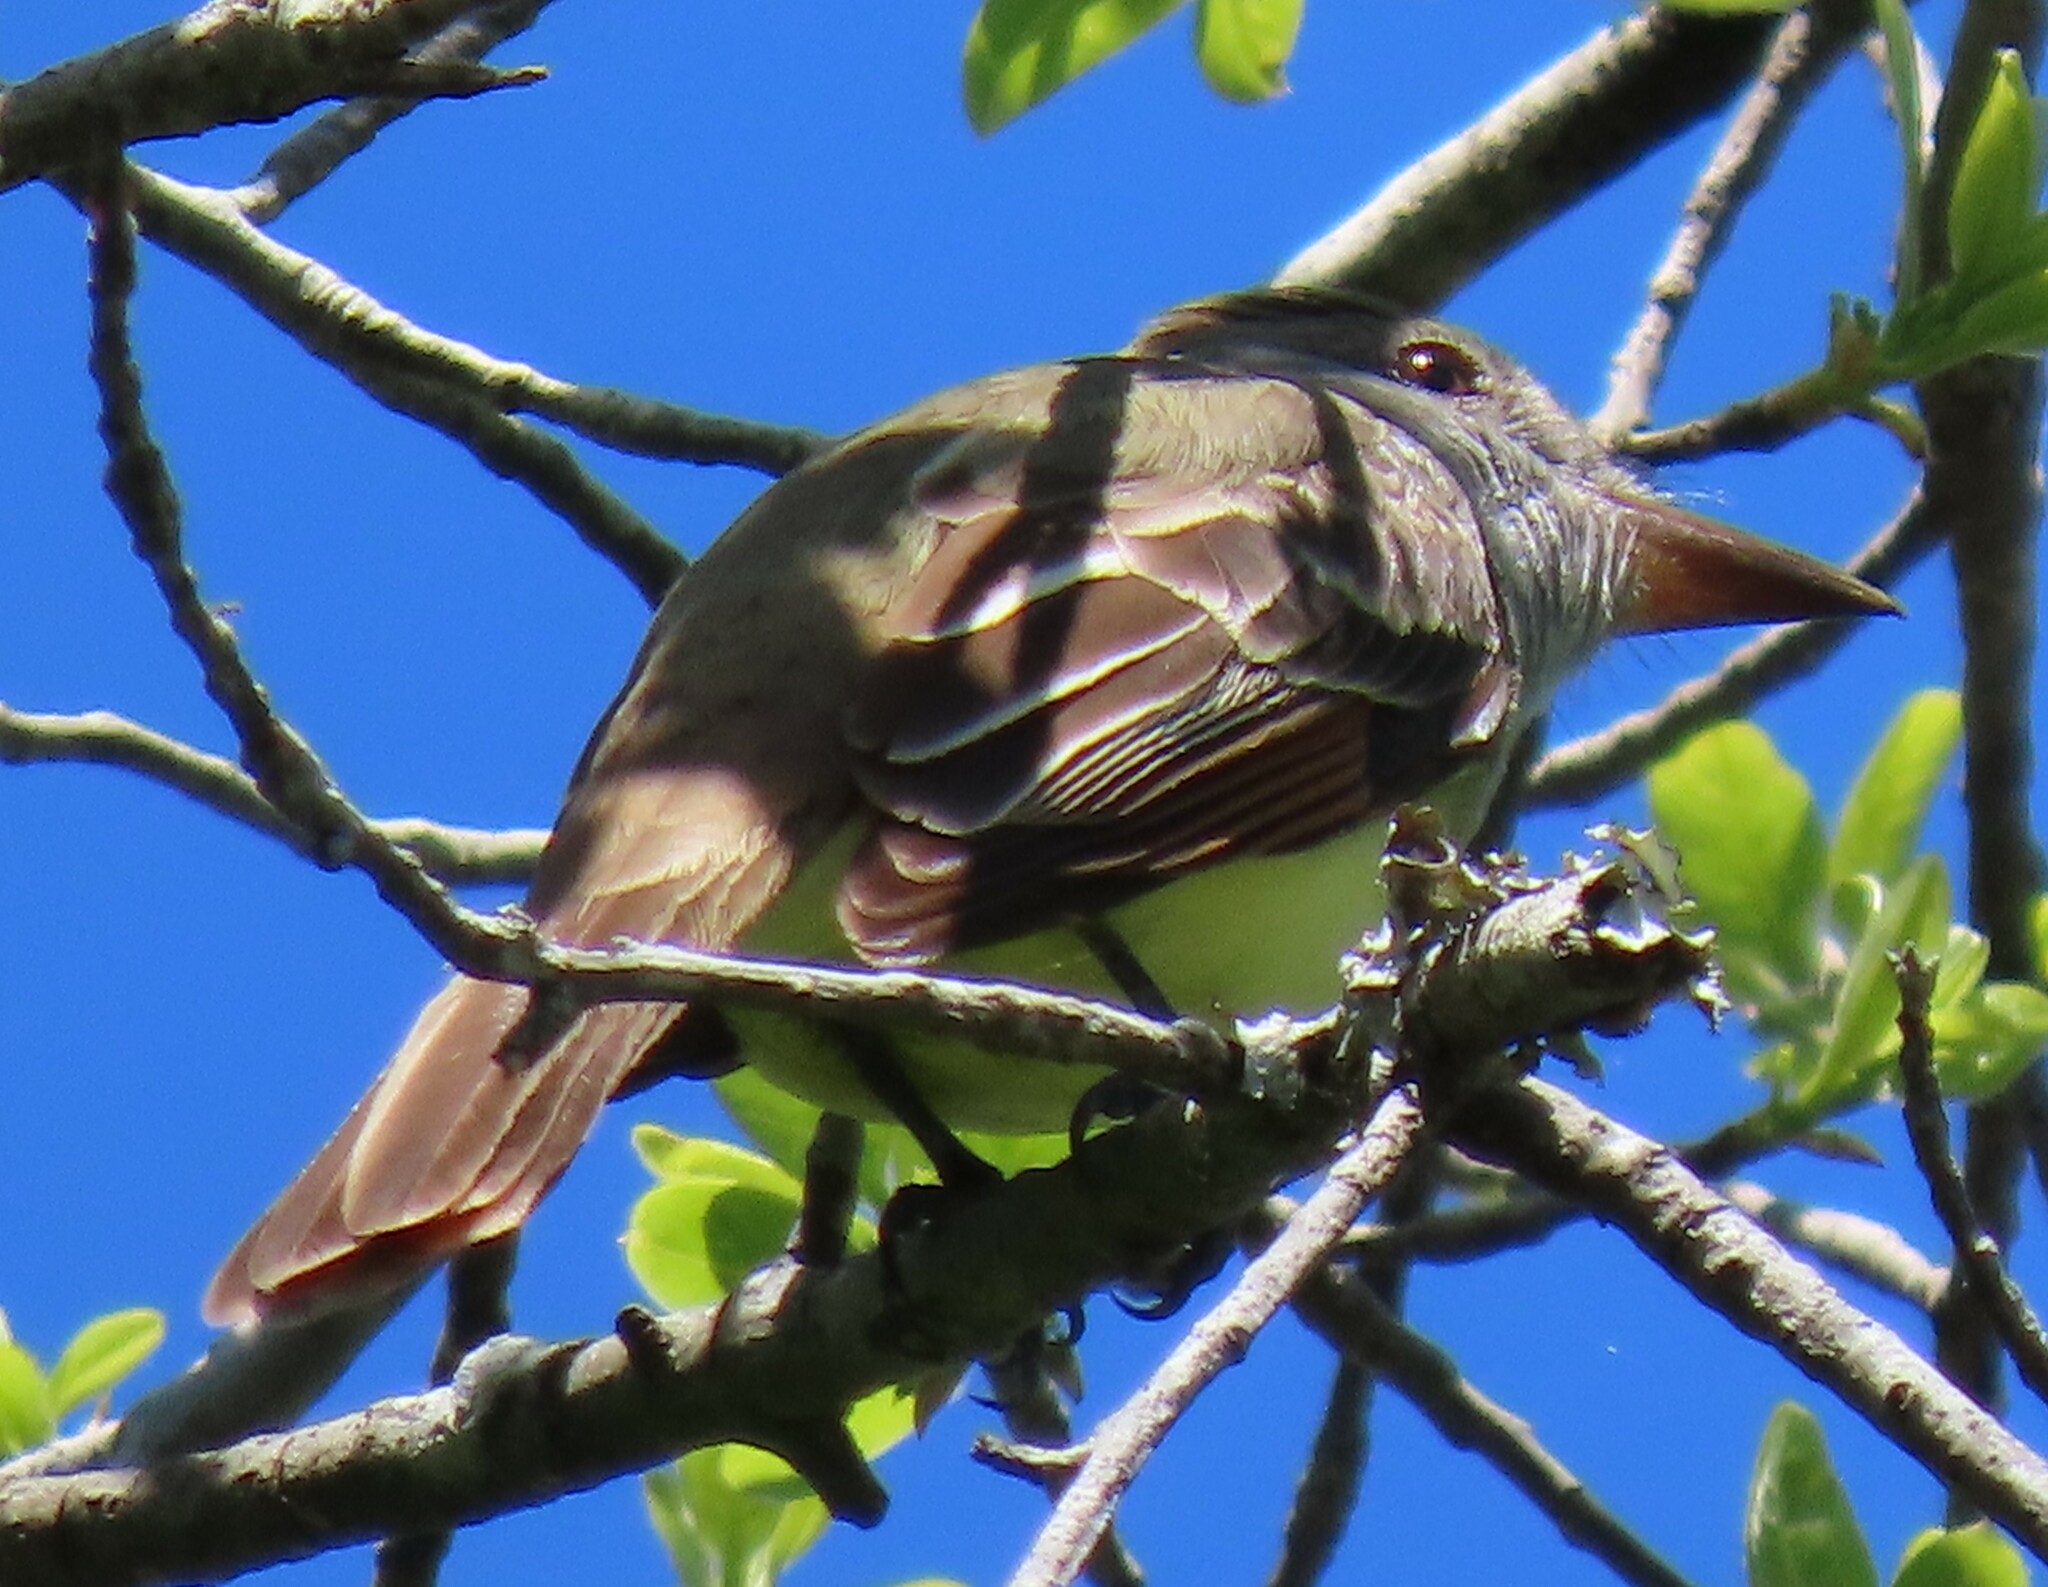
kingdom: Animalia
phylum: Chordata
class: Aves
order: Passeriformes
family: Tyrannidae
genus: Myiarchus
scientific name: Myiarchus crinitus
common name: Great crested flycatcher
